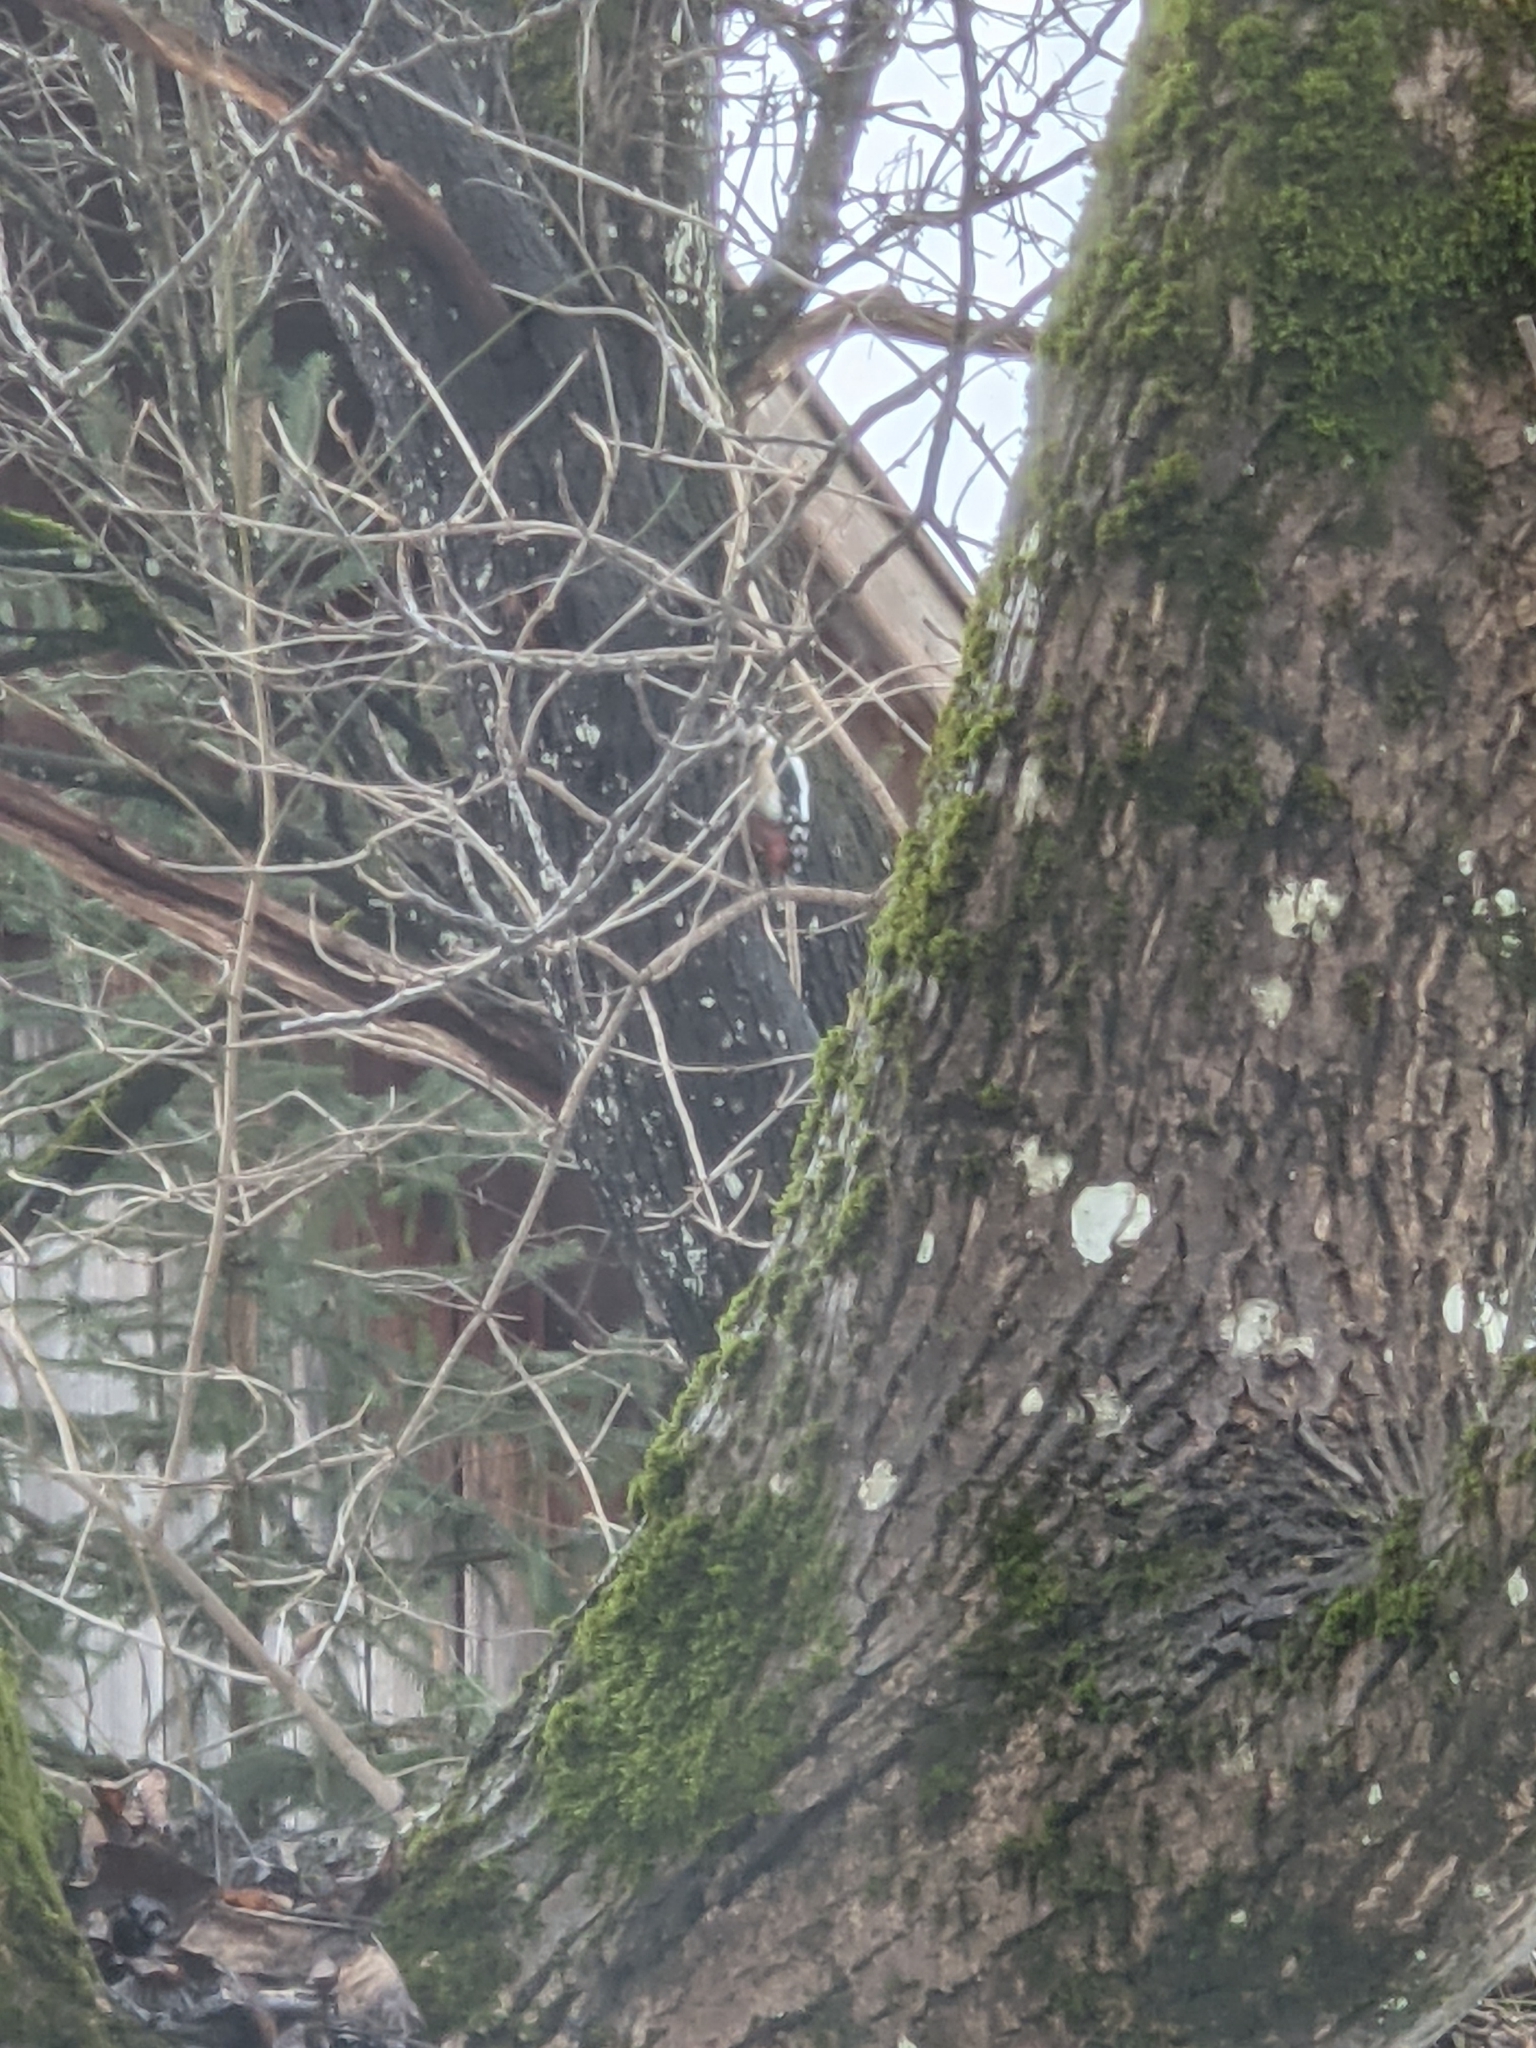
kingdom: Animalia
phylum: Chordata
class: Aves
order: Piciformes
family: Picidae
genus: Dendrocopos
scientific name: Dendrocopos major
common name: Great spotted woodpecker
